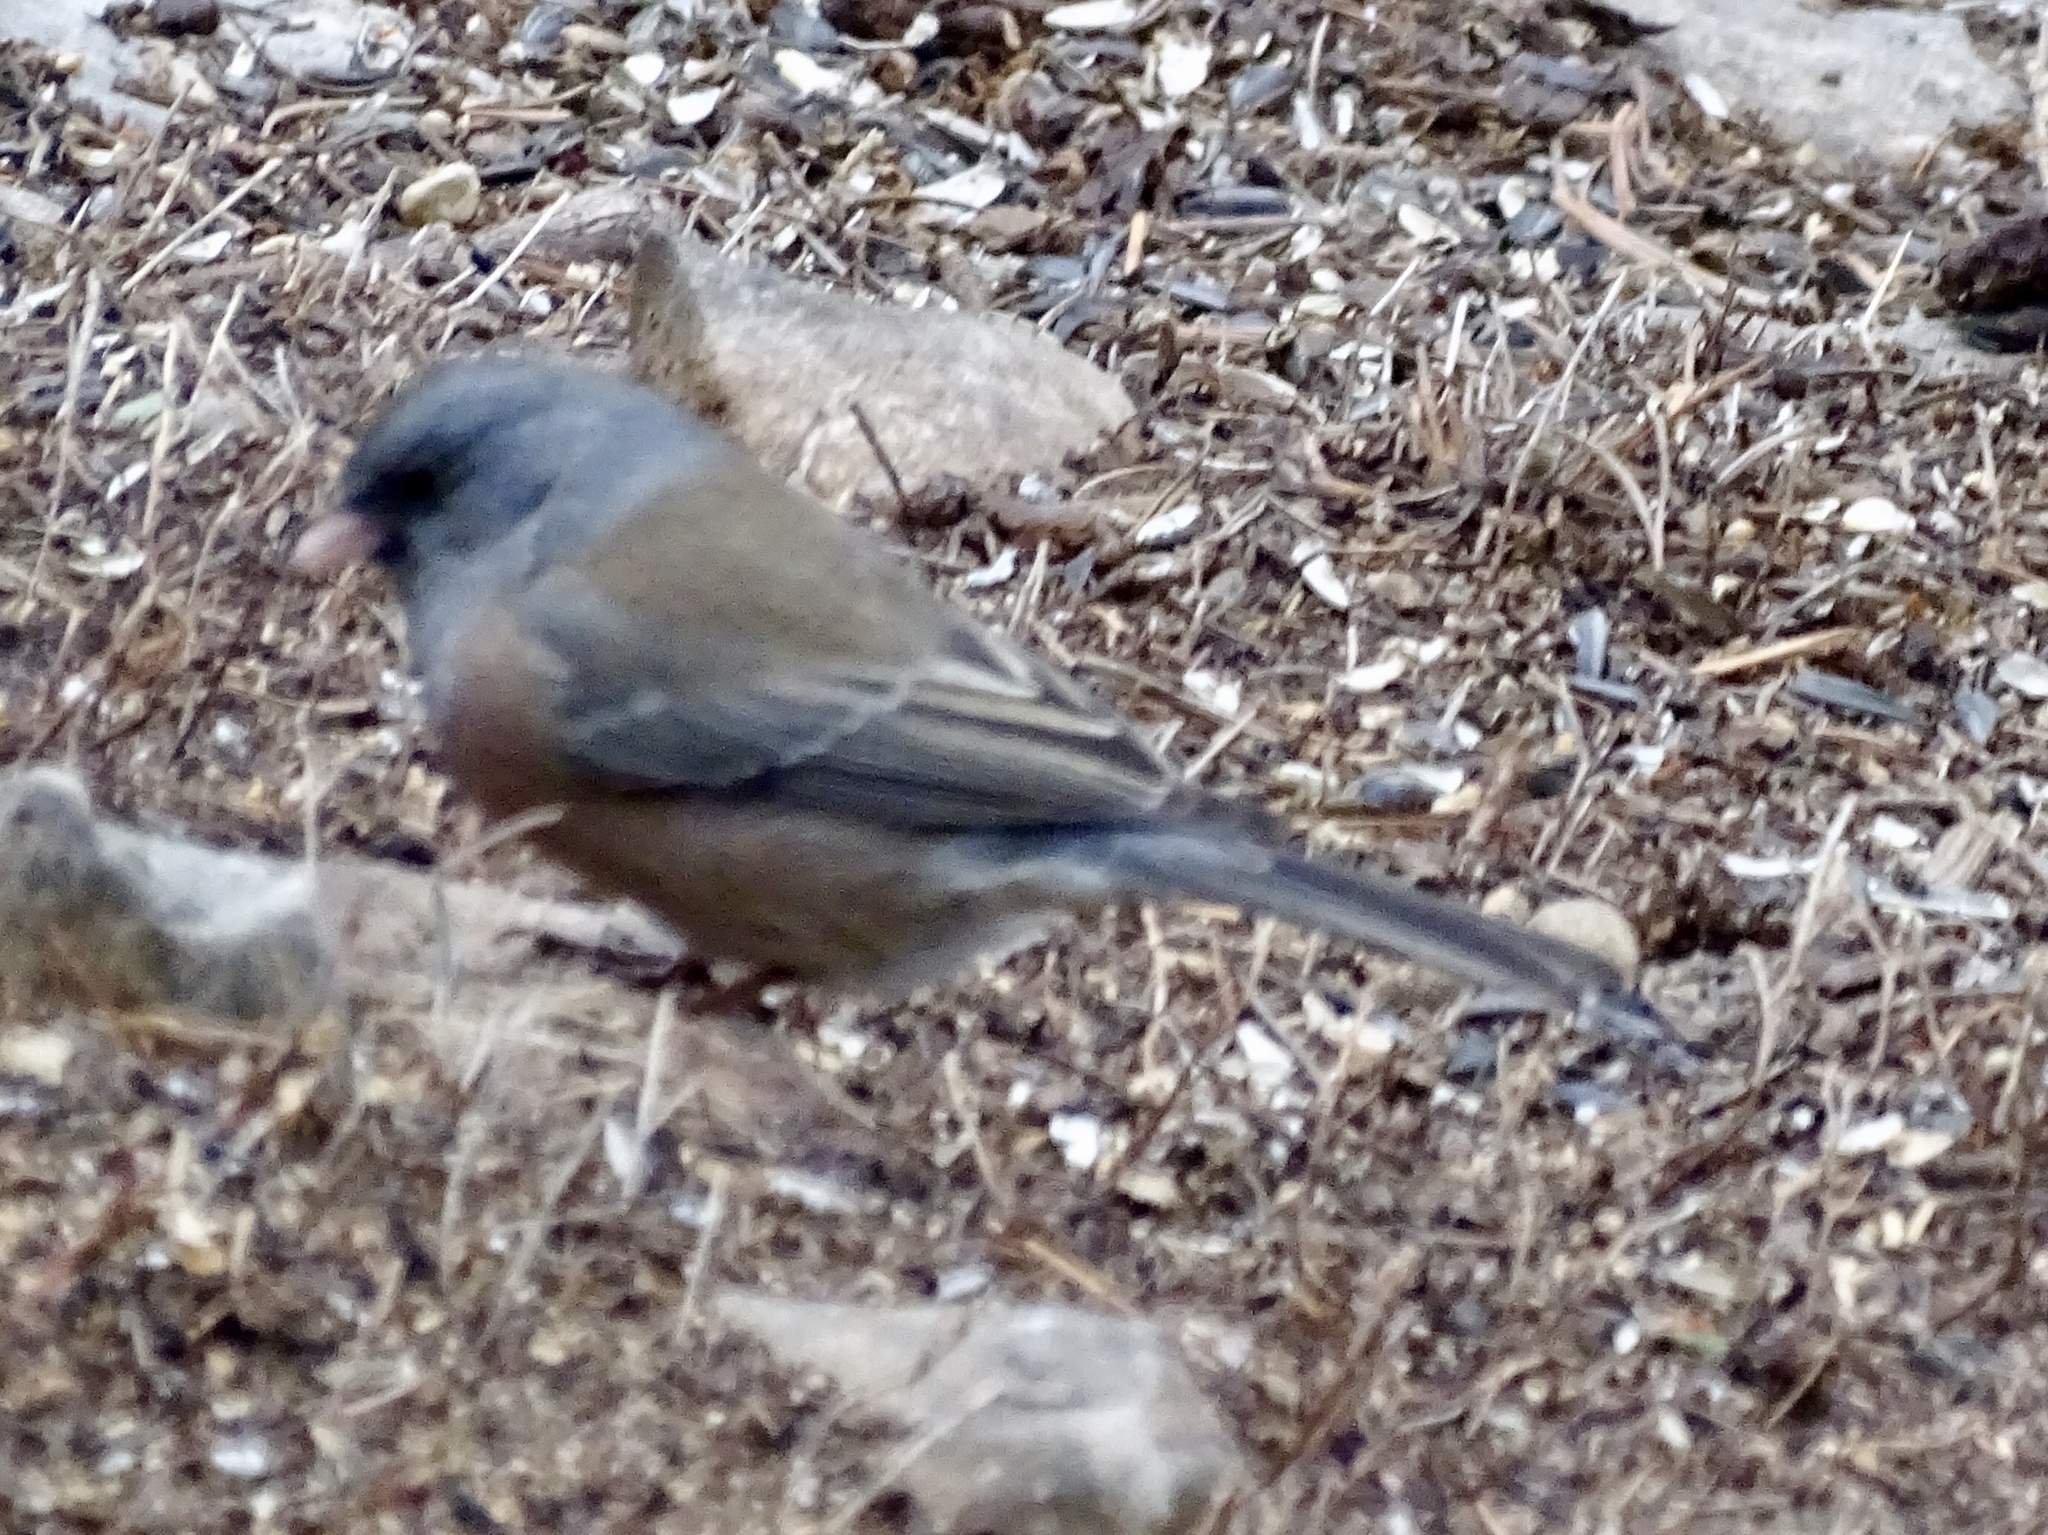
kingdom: Animalia
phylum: Chordata
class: Aves
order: Passeriformes
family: Passerellidae
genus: Junco
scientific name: Junco hyemalis
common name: Dark-eyed junco
